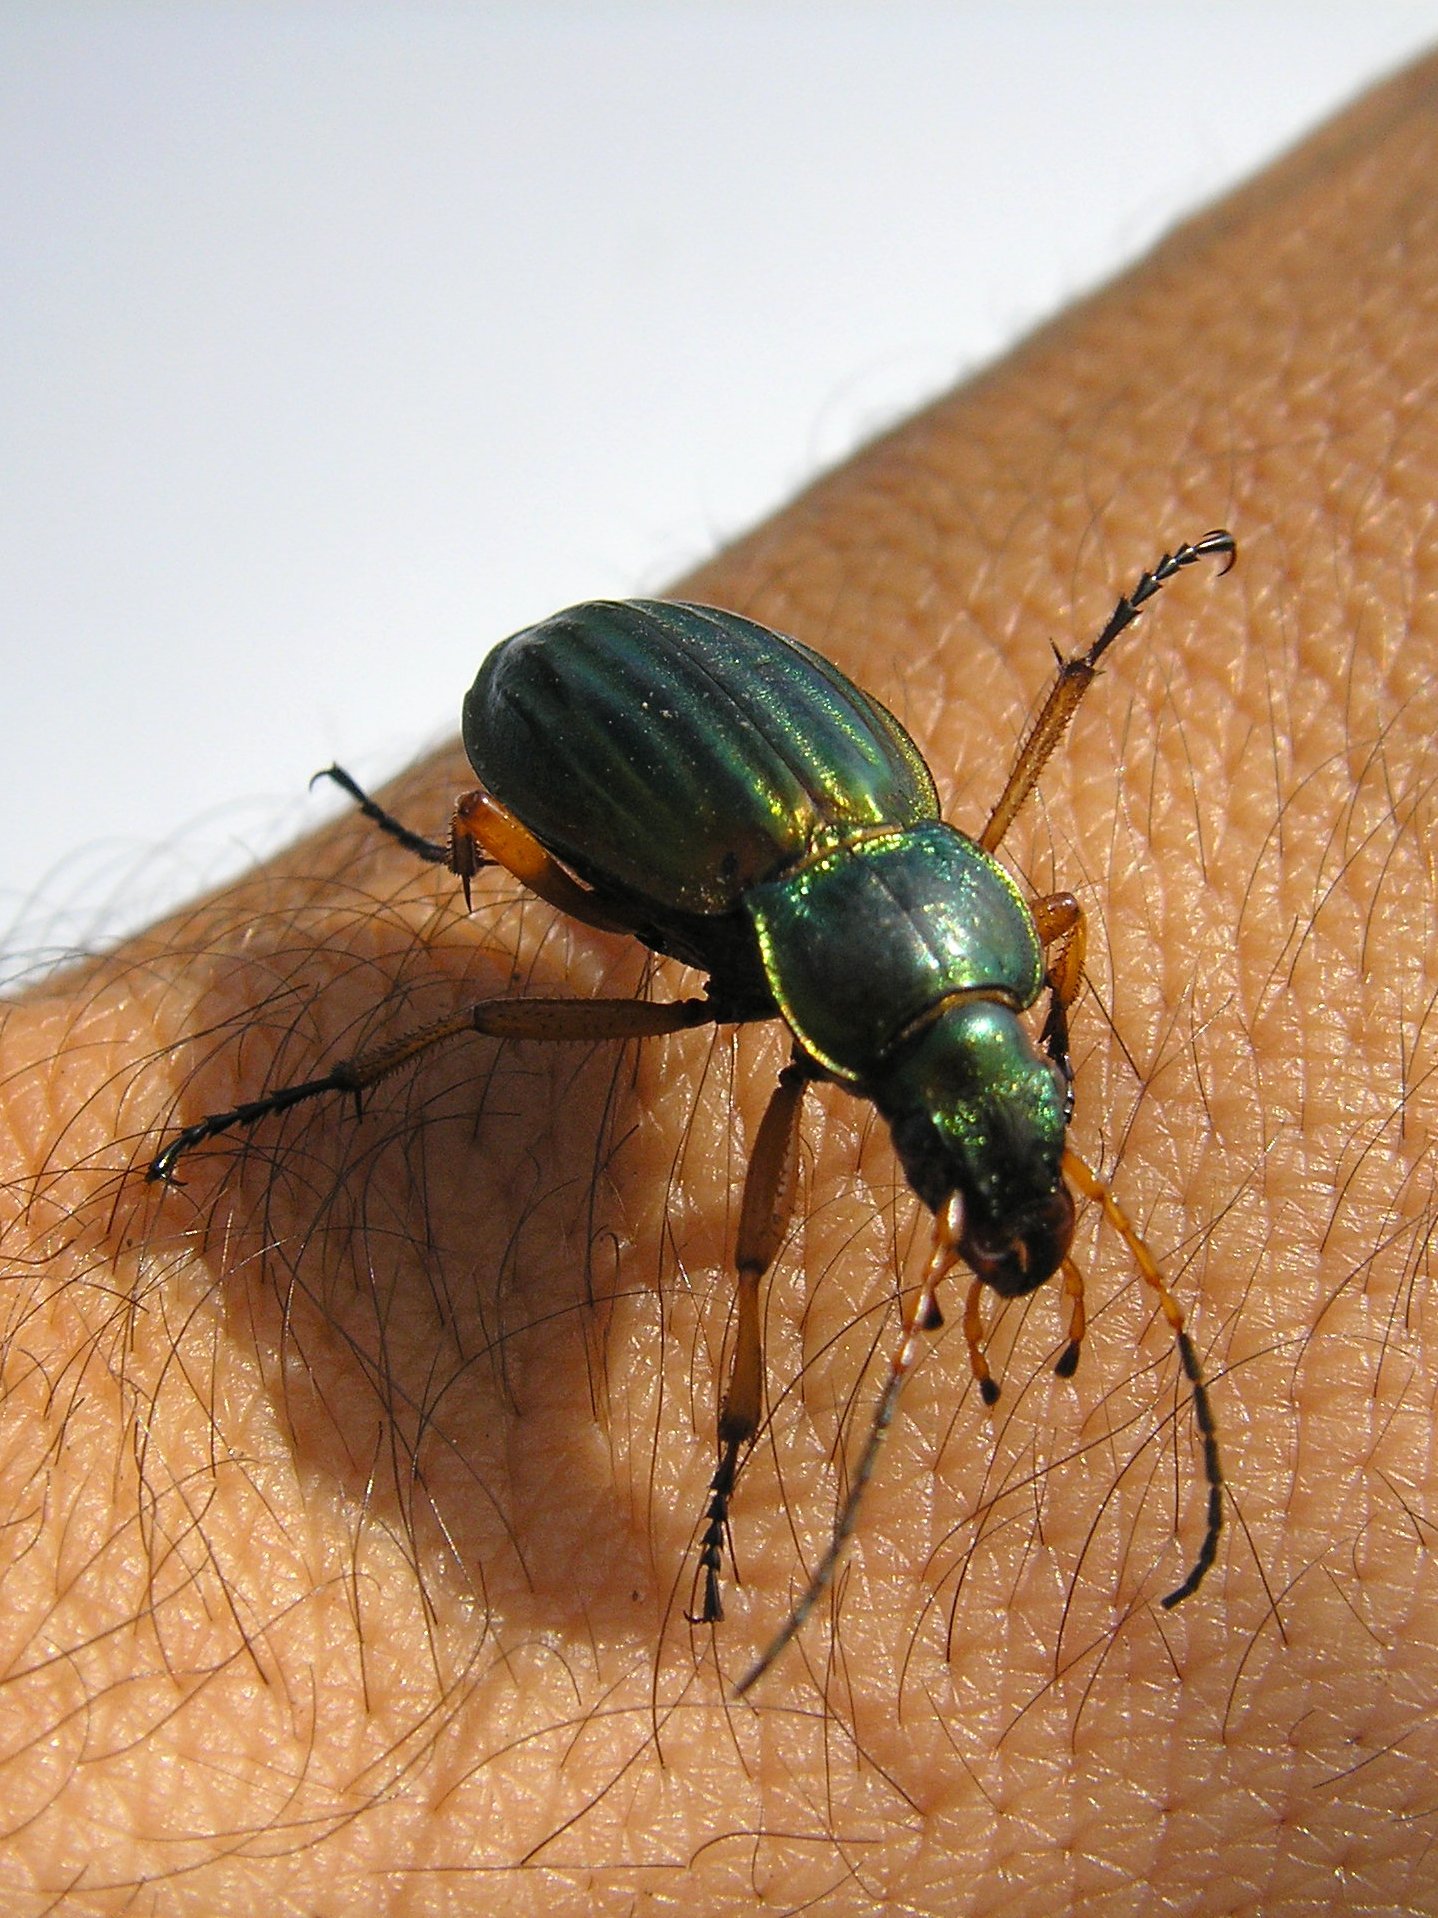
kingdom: Animalia
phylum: Arthropoda
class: Insecta
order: Coleoptera
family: Carabidae
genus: Carabus
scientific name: Carabus auratus
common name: Golden ground beetle
